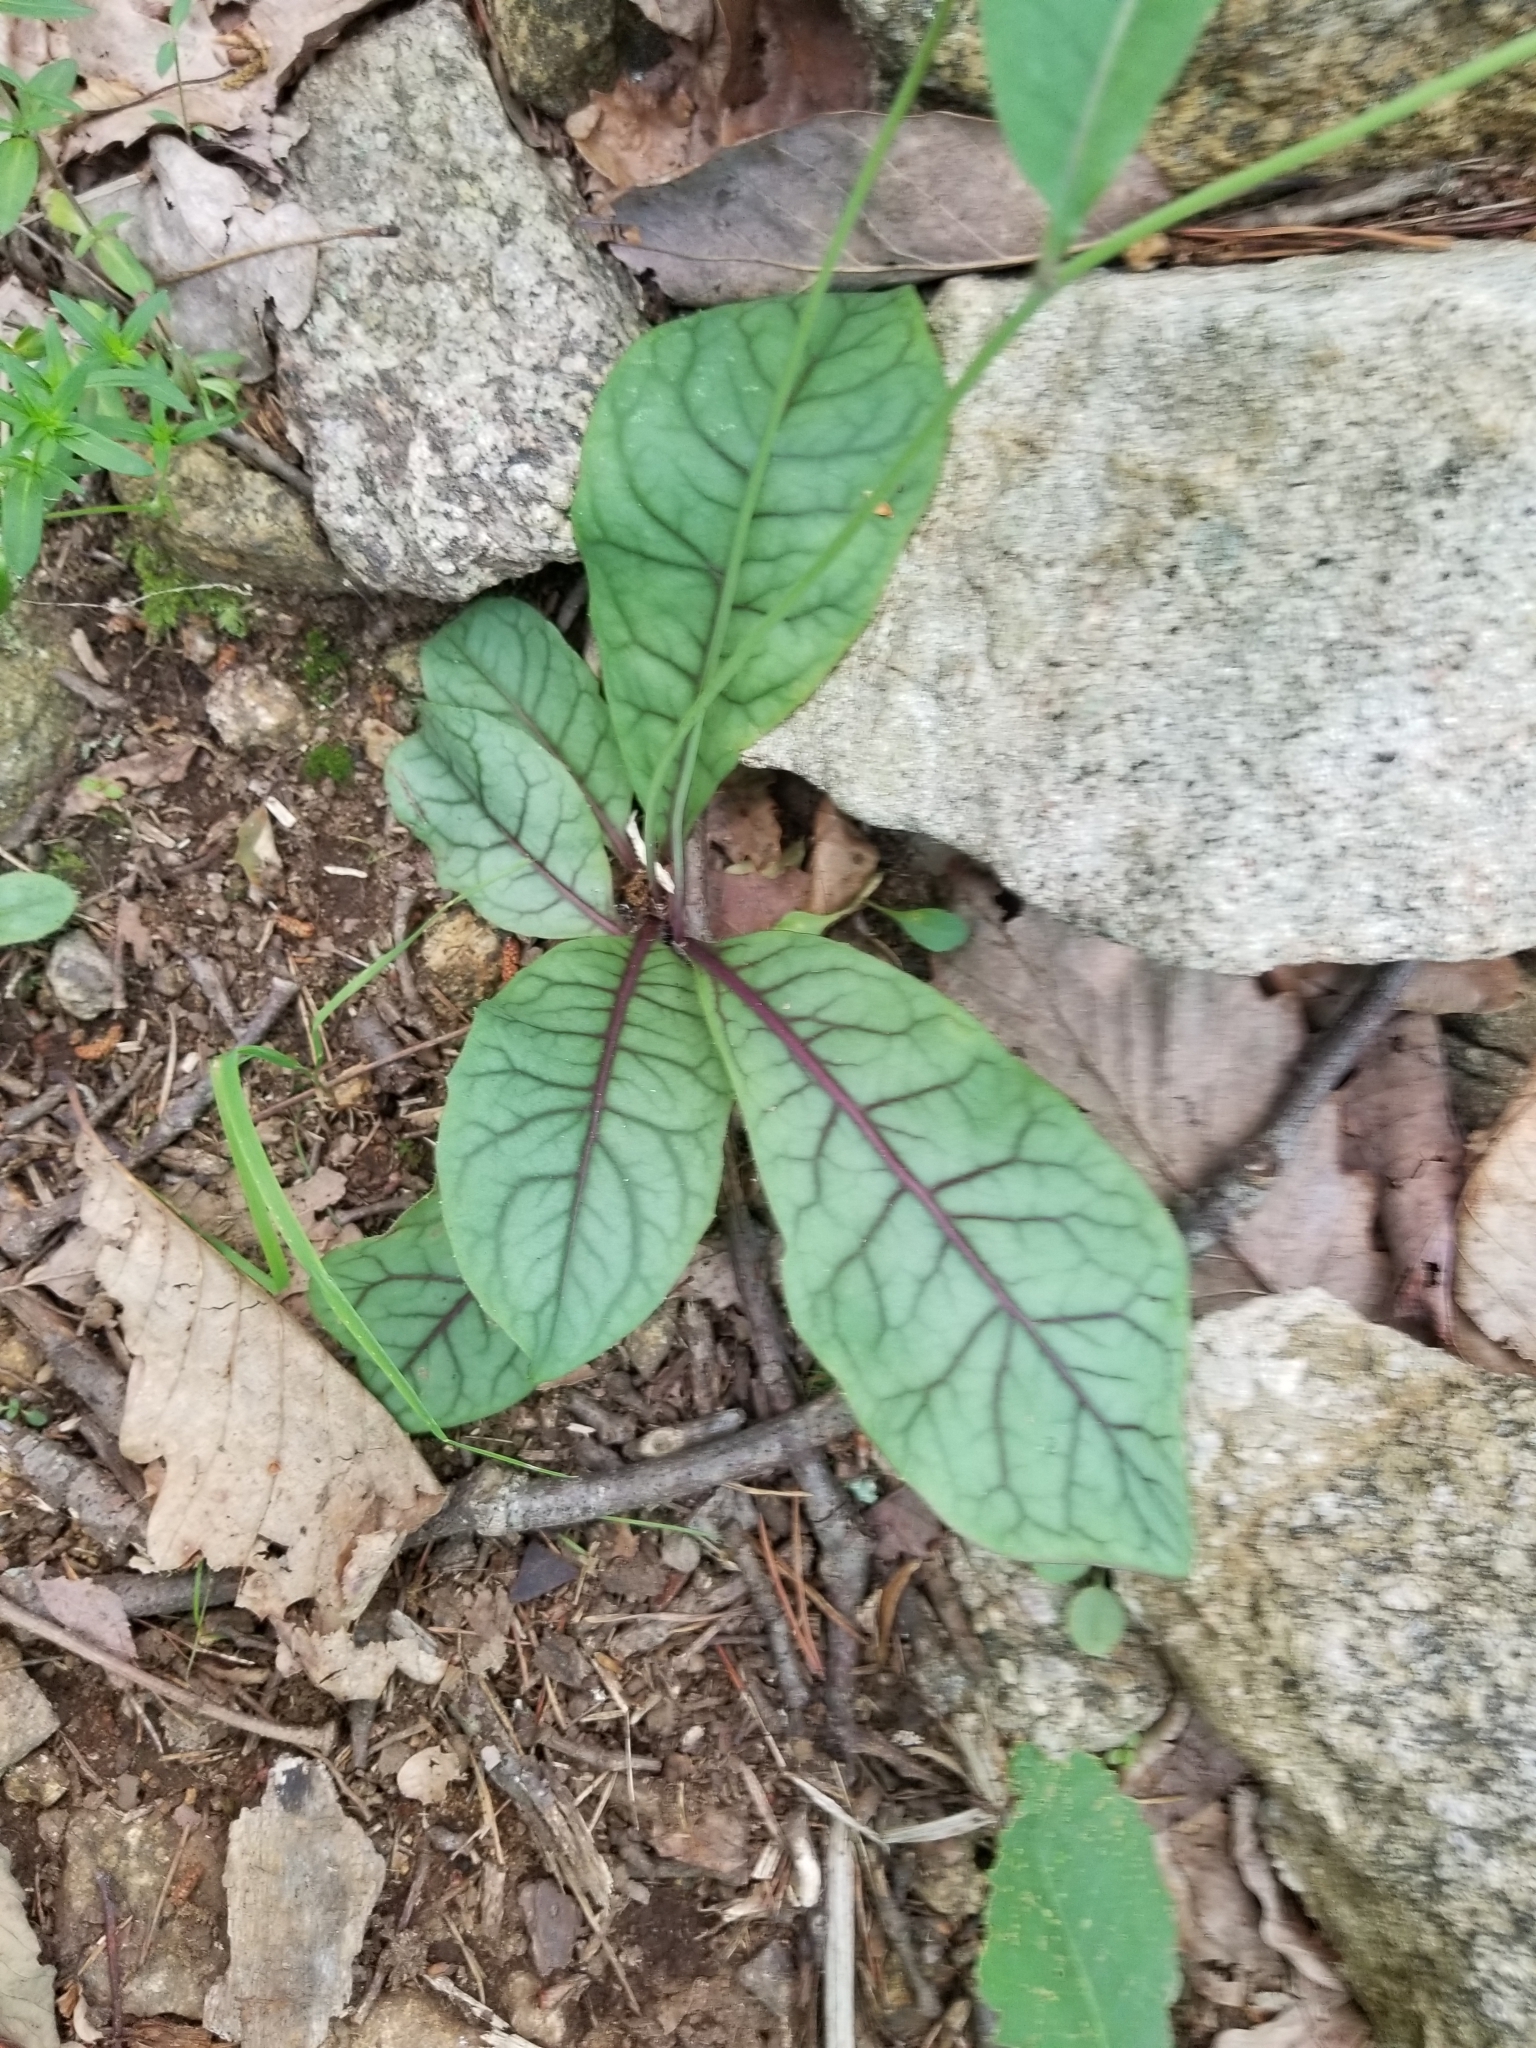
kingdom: Plantae
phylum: Tracheophyta
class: Magnoliopsida
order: Asterales
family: Asteraceae
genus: Hieracium
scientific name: Hieracium venosum
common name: Rattlesnake hawkweed
